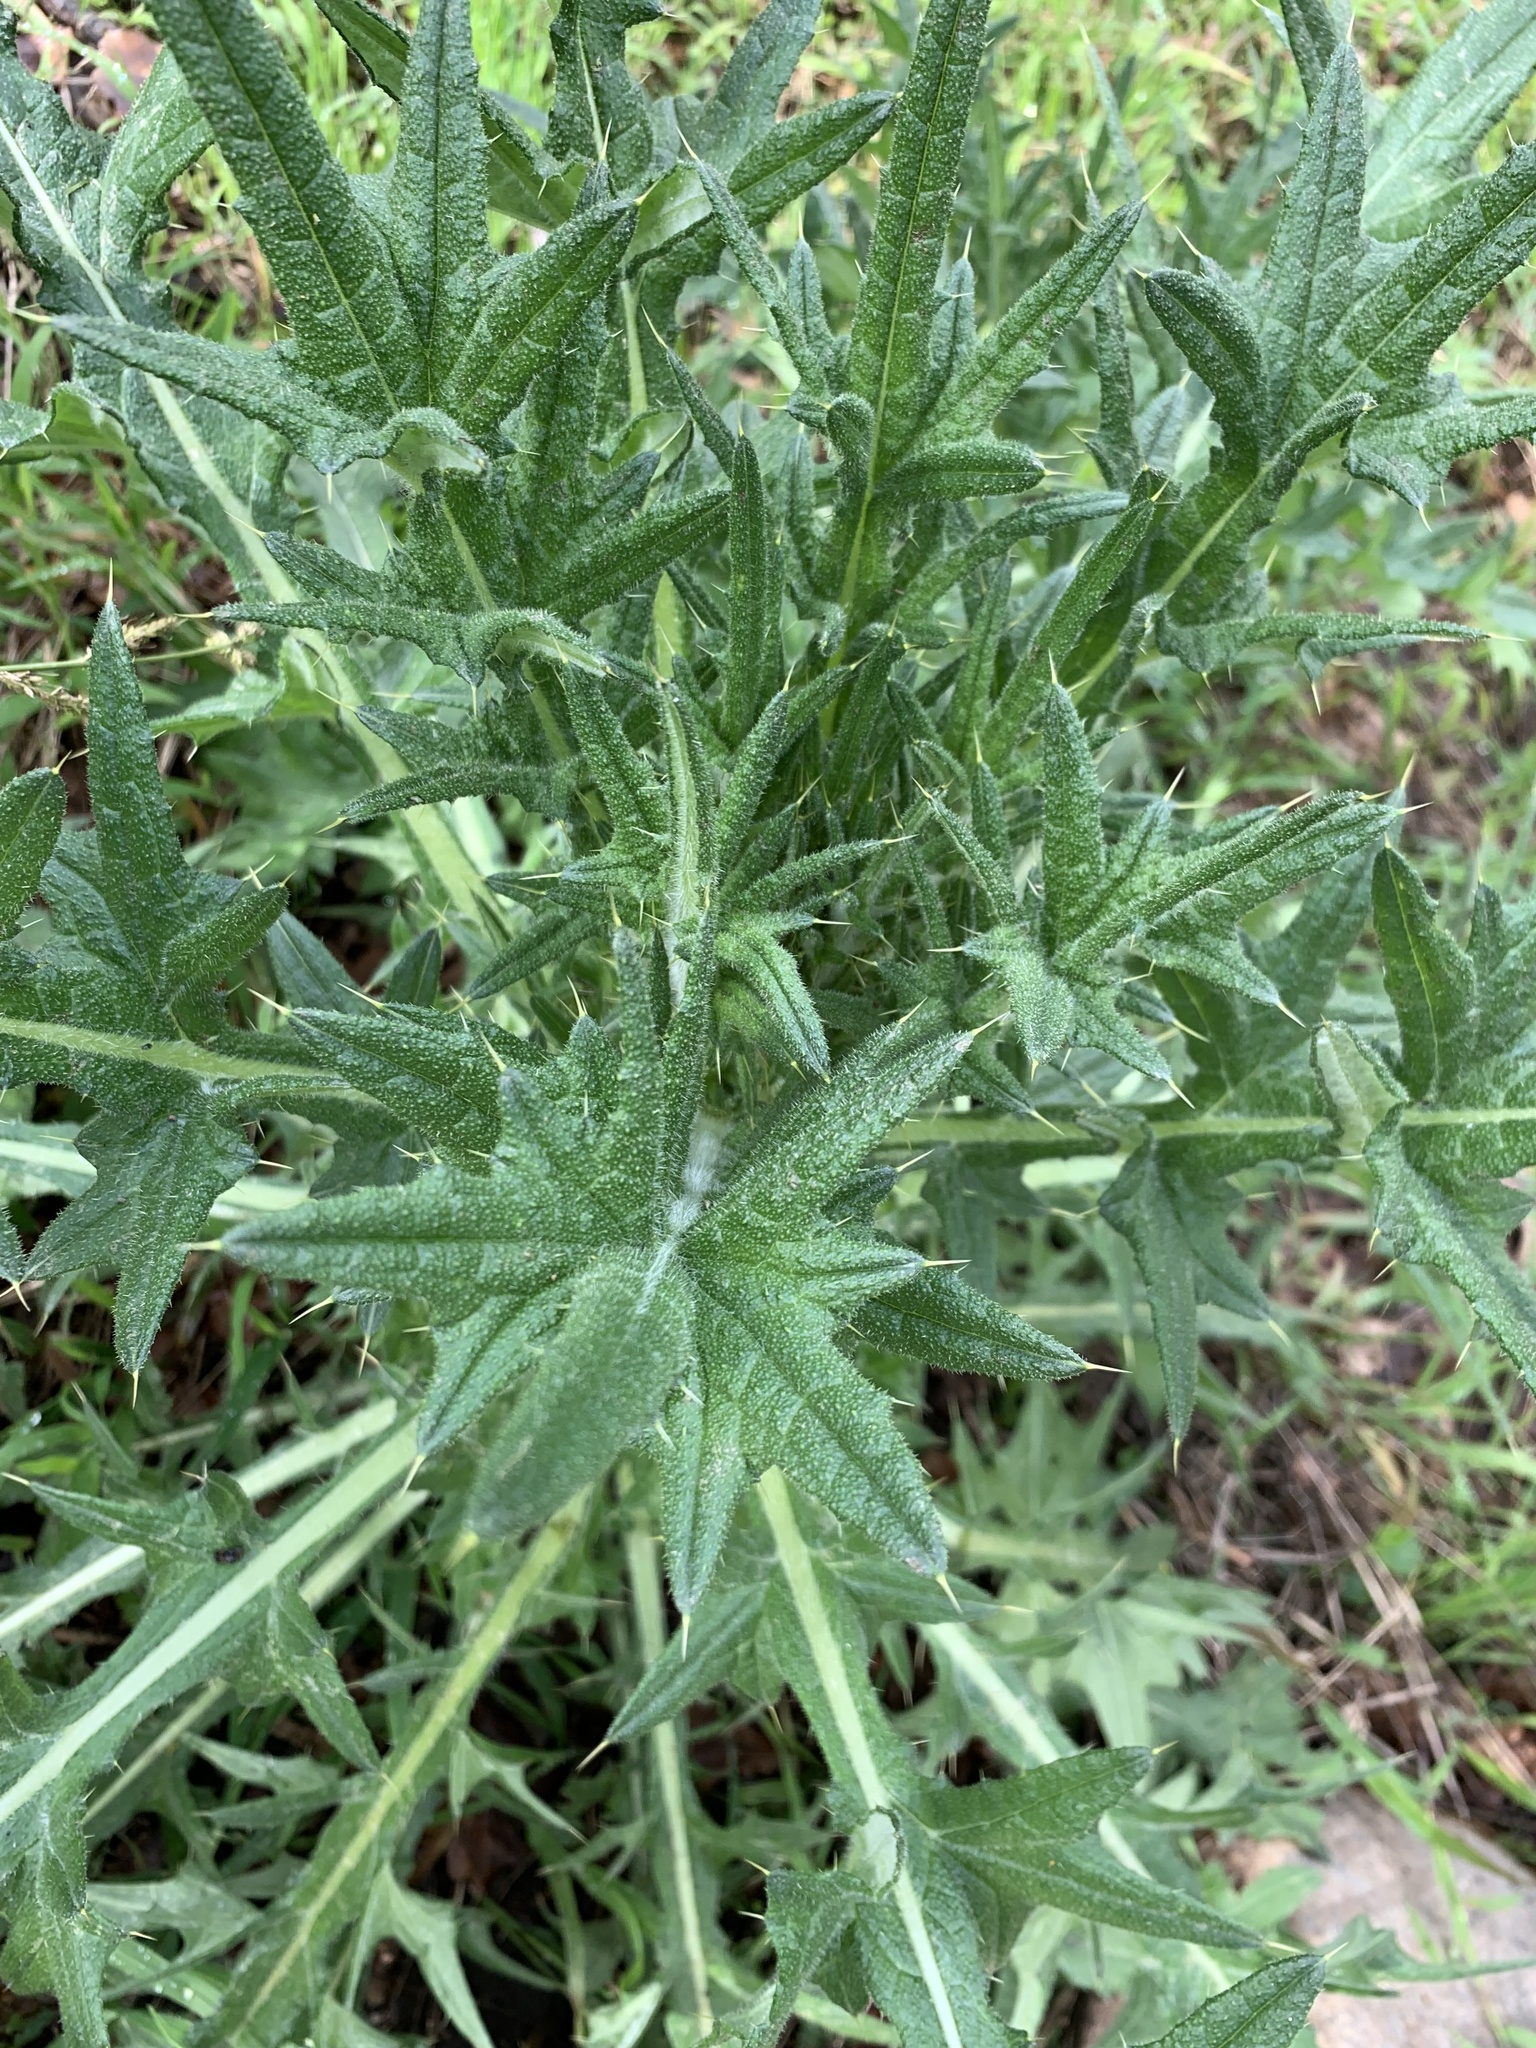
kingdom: Plantae
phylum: Tracheophyta
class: Magnoliopsida
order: Asterales
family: Asteraceae
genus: Cirsium
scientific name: Cirsium vulgare
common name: Bull thistle
